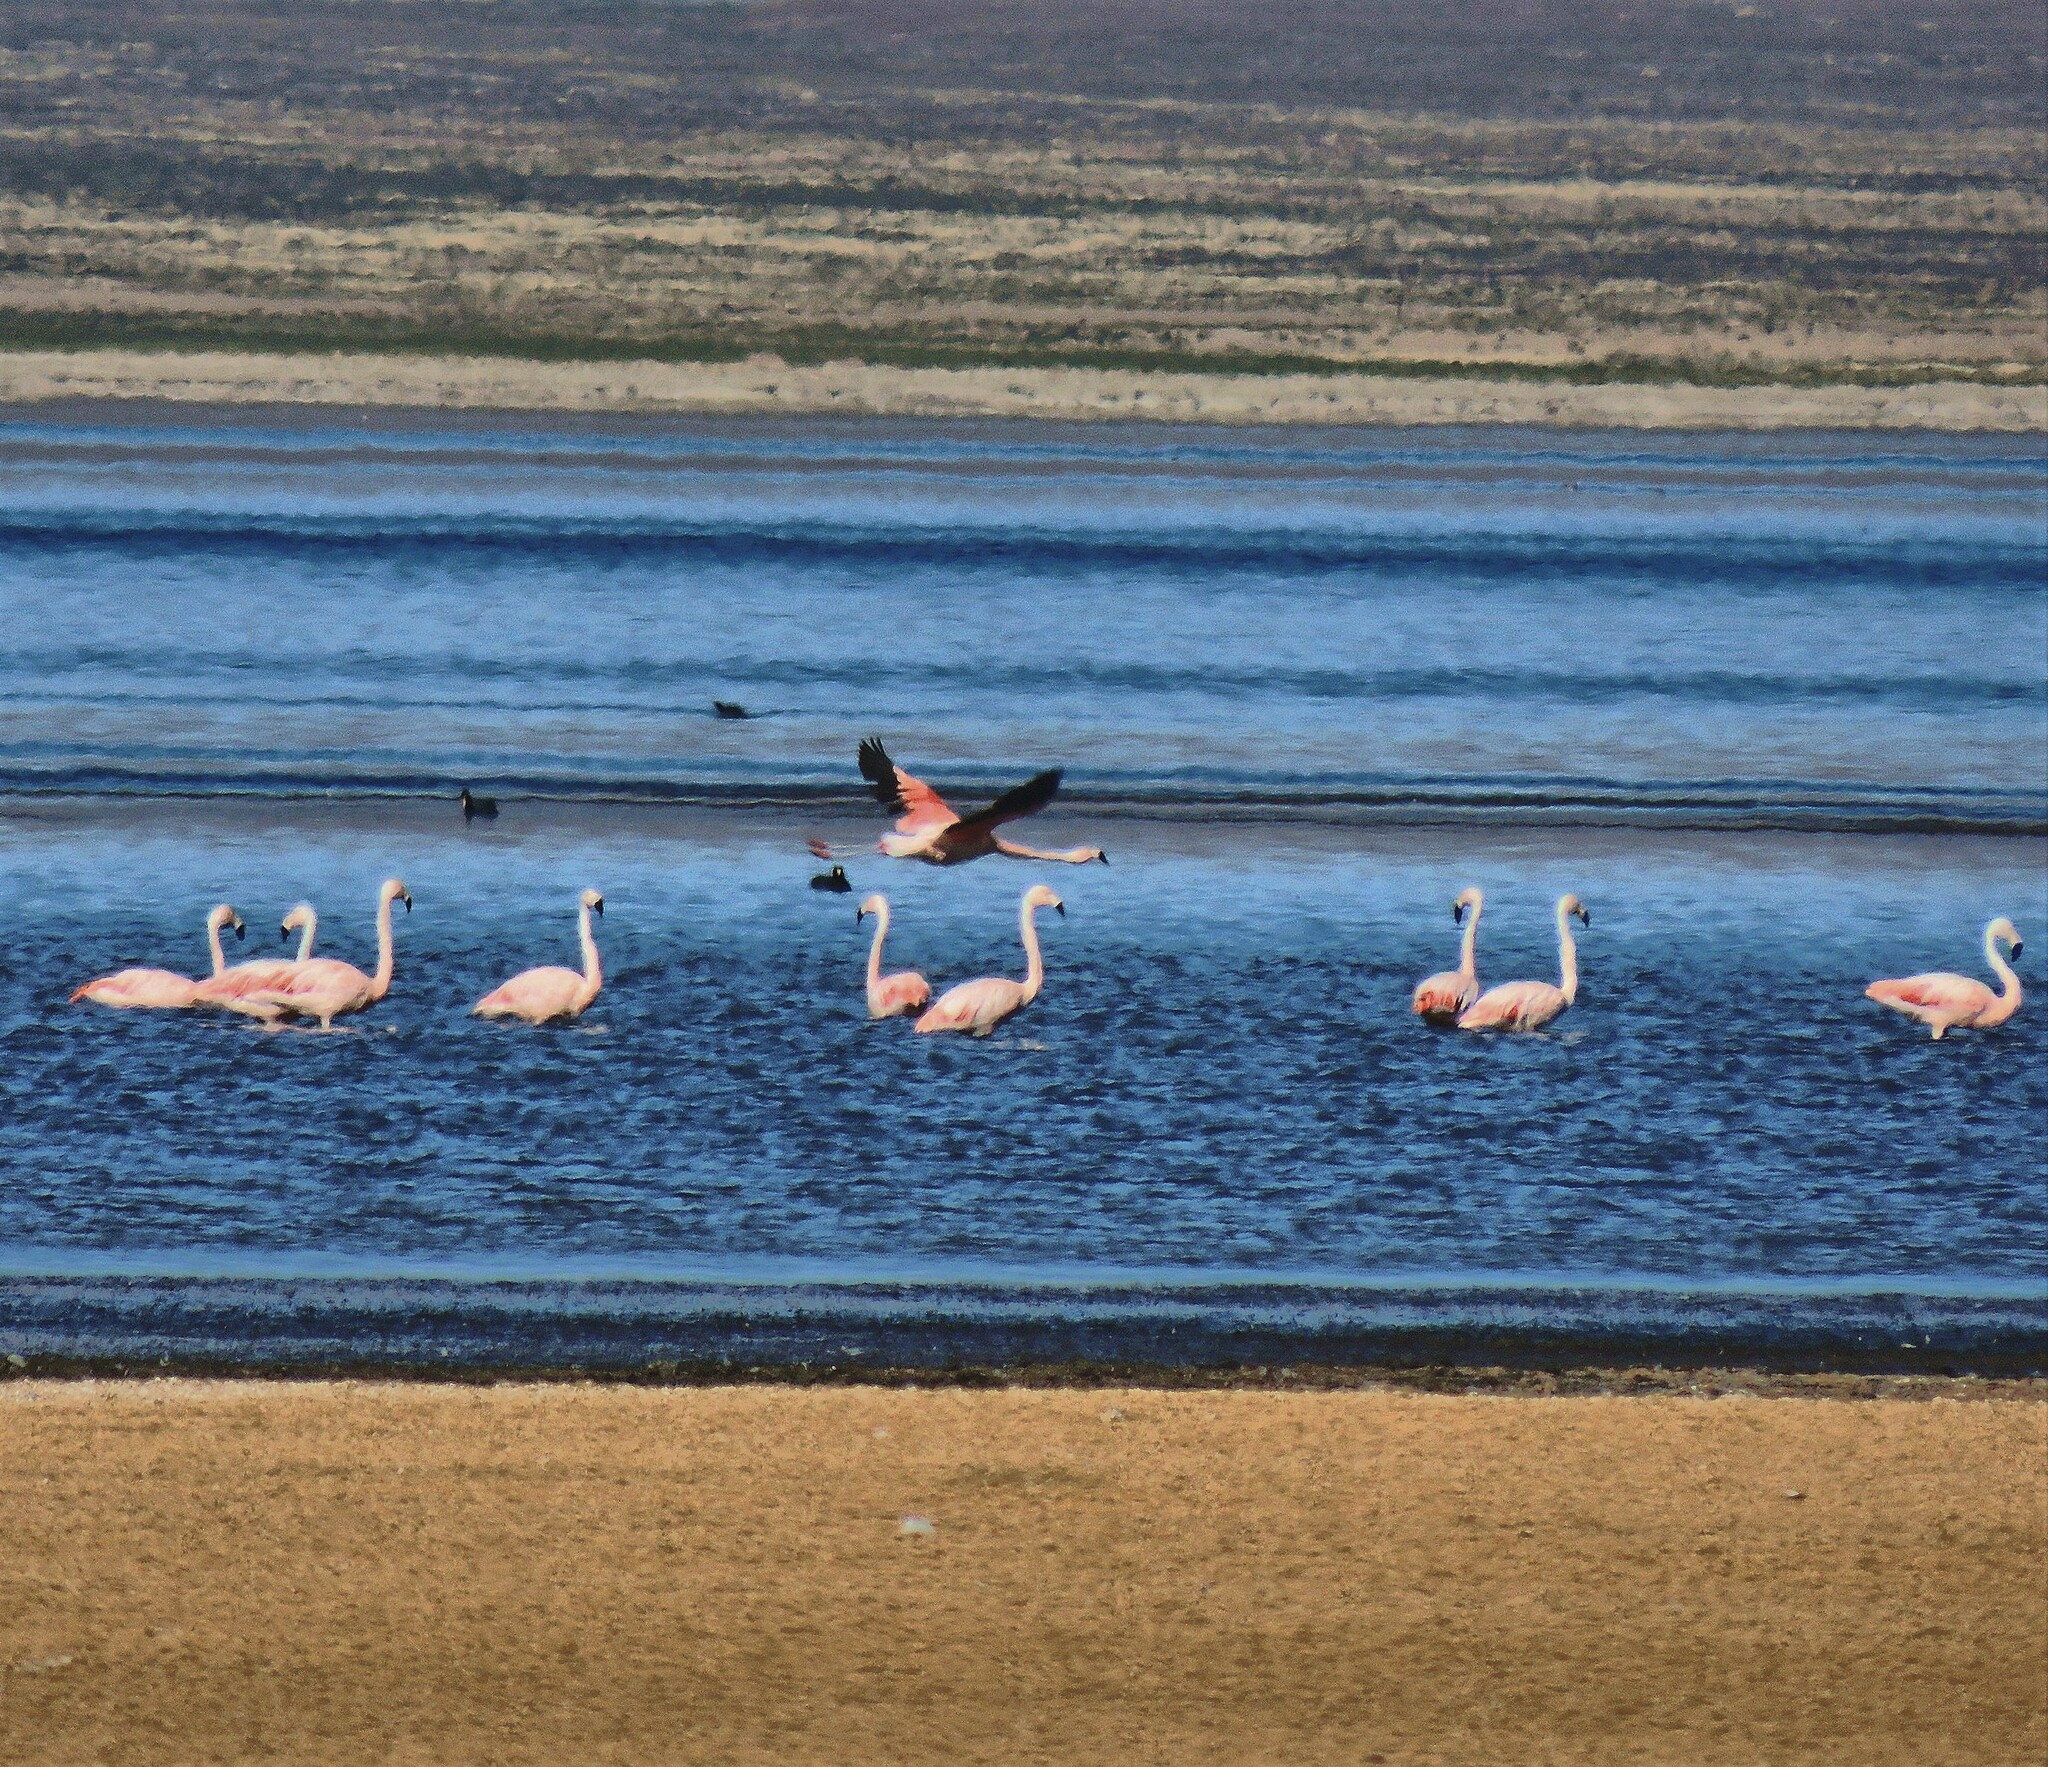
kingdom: Animalia
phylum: Chordata
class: Aves
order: Phoenicopteriformes
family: Phoenicopteridae
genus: Phoenicopterus
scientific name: Phoenicopterus chilensis
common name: Chilean flamingo
